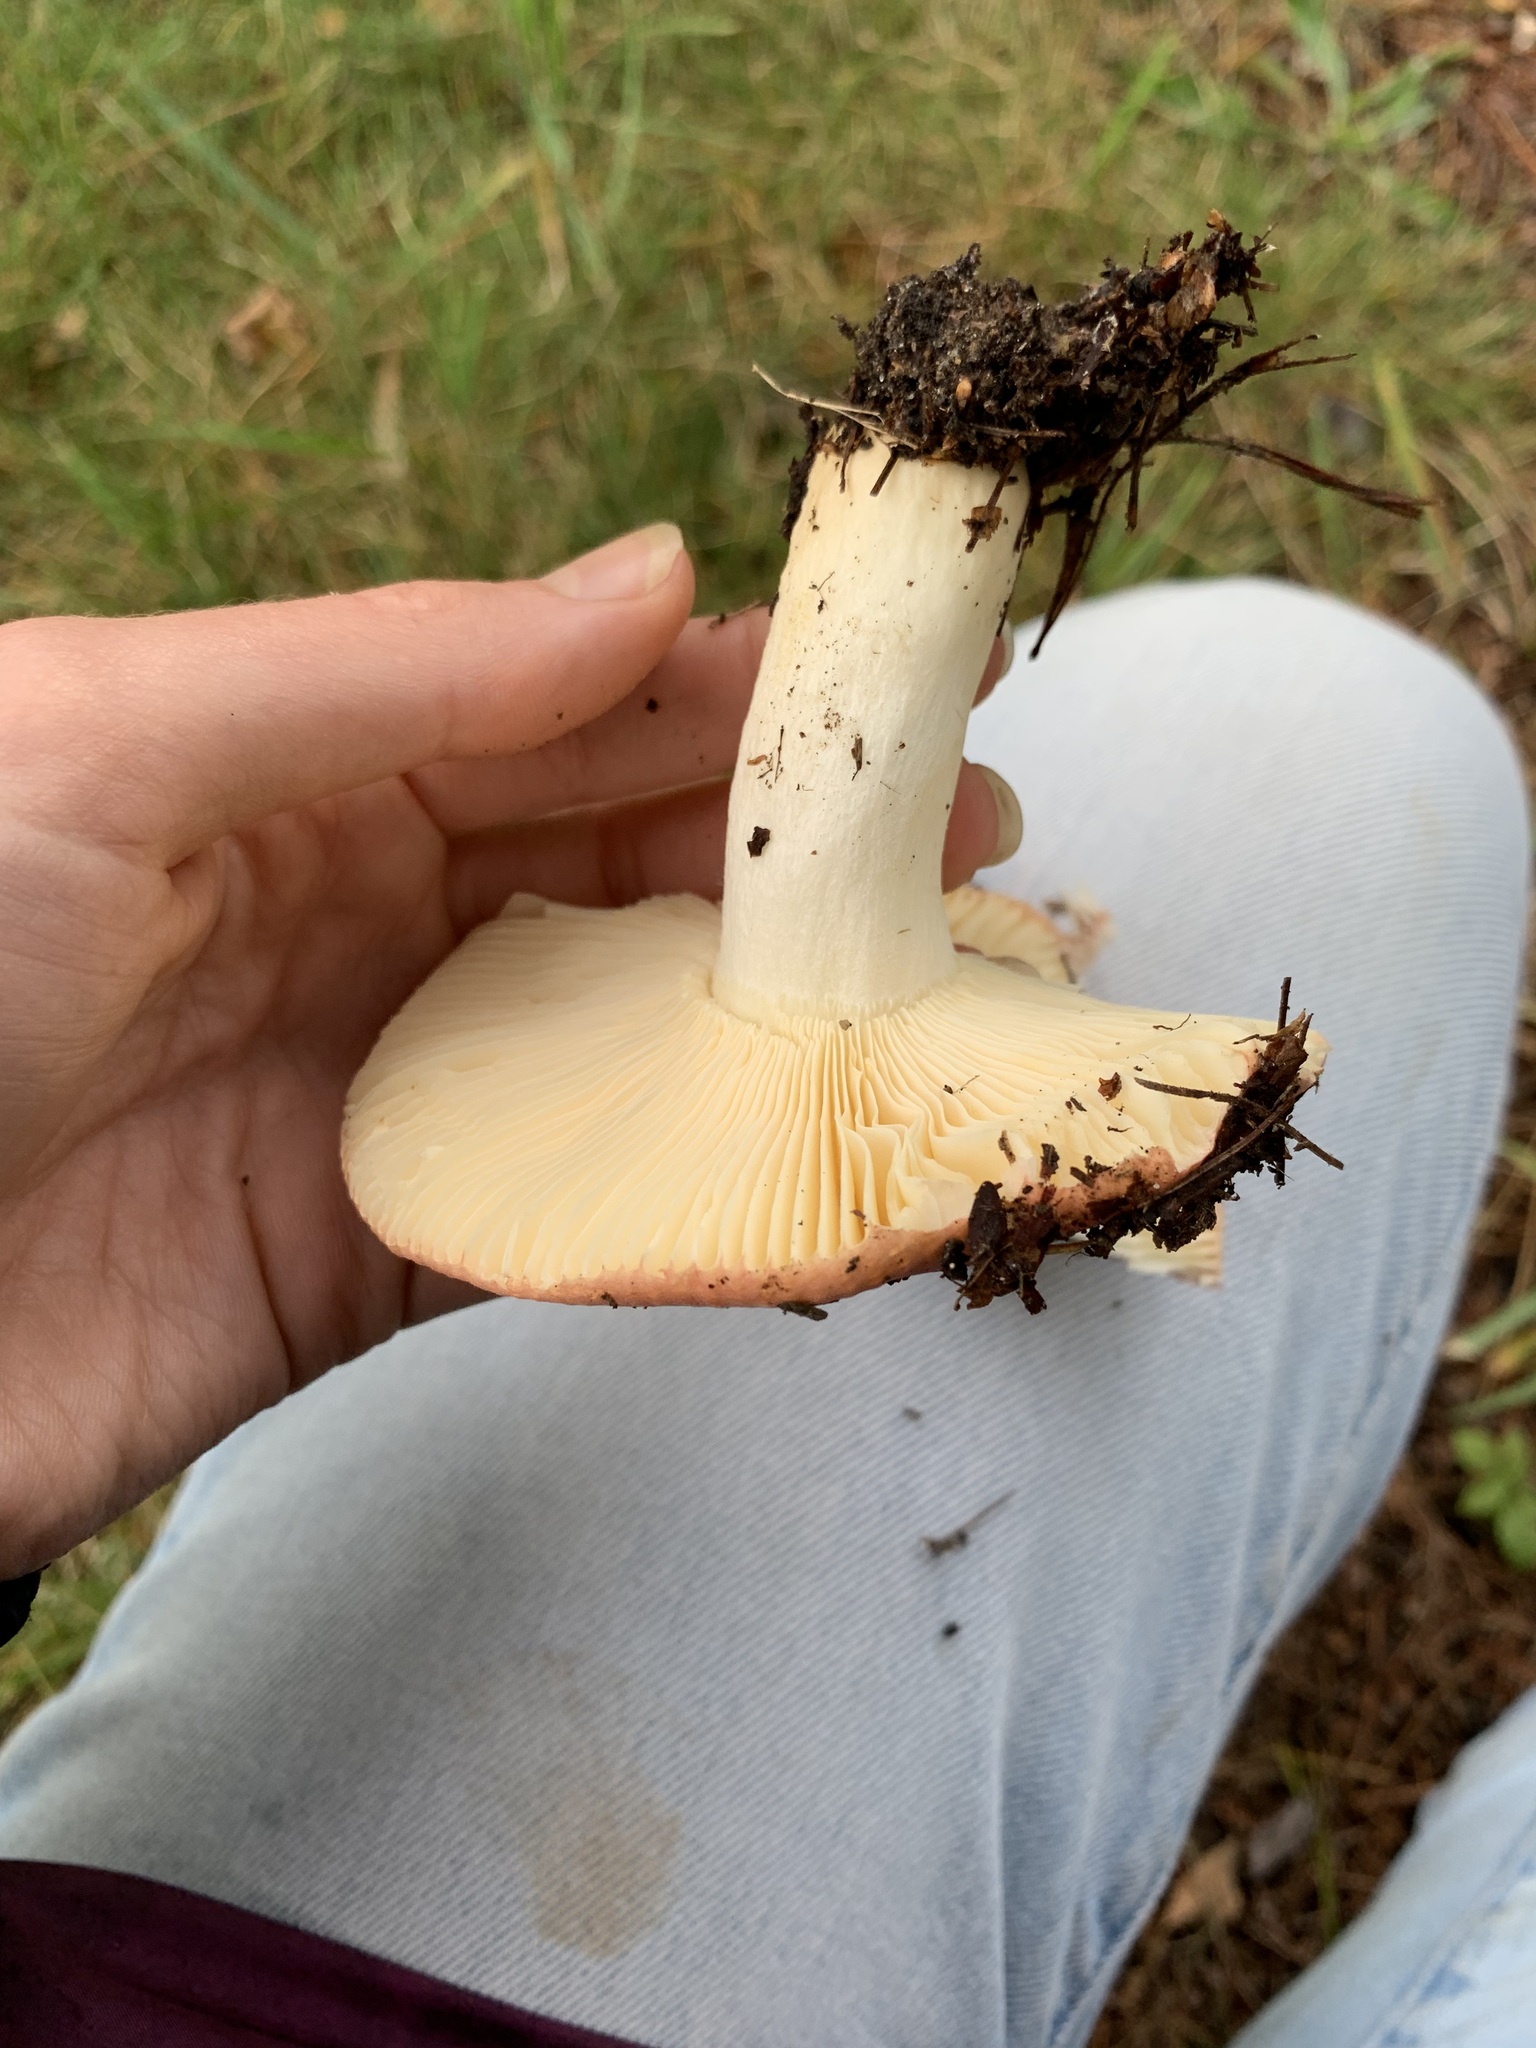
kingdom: Fungi
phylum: Basidiomycota
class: Agaricomycetes
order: Russulales
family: Russulaceae
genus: Russula
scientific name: Russula
